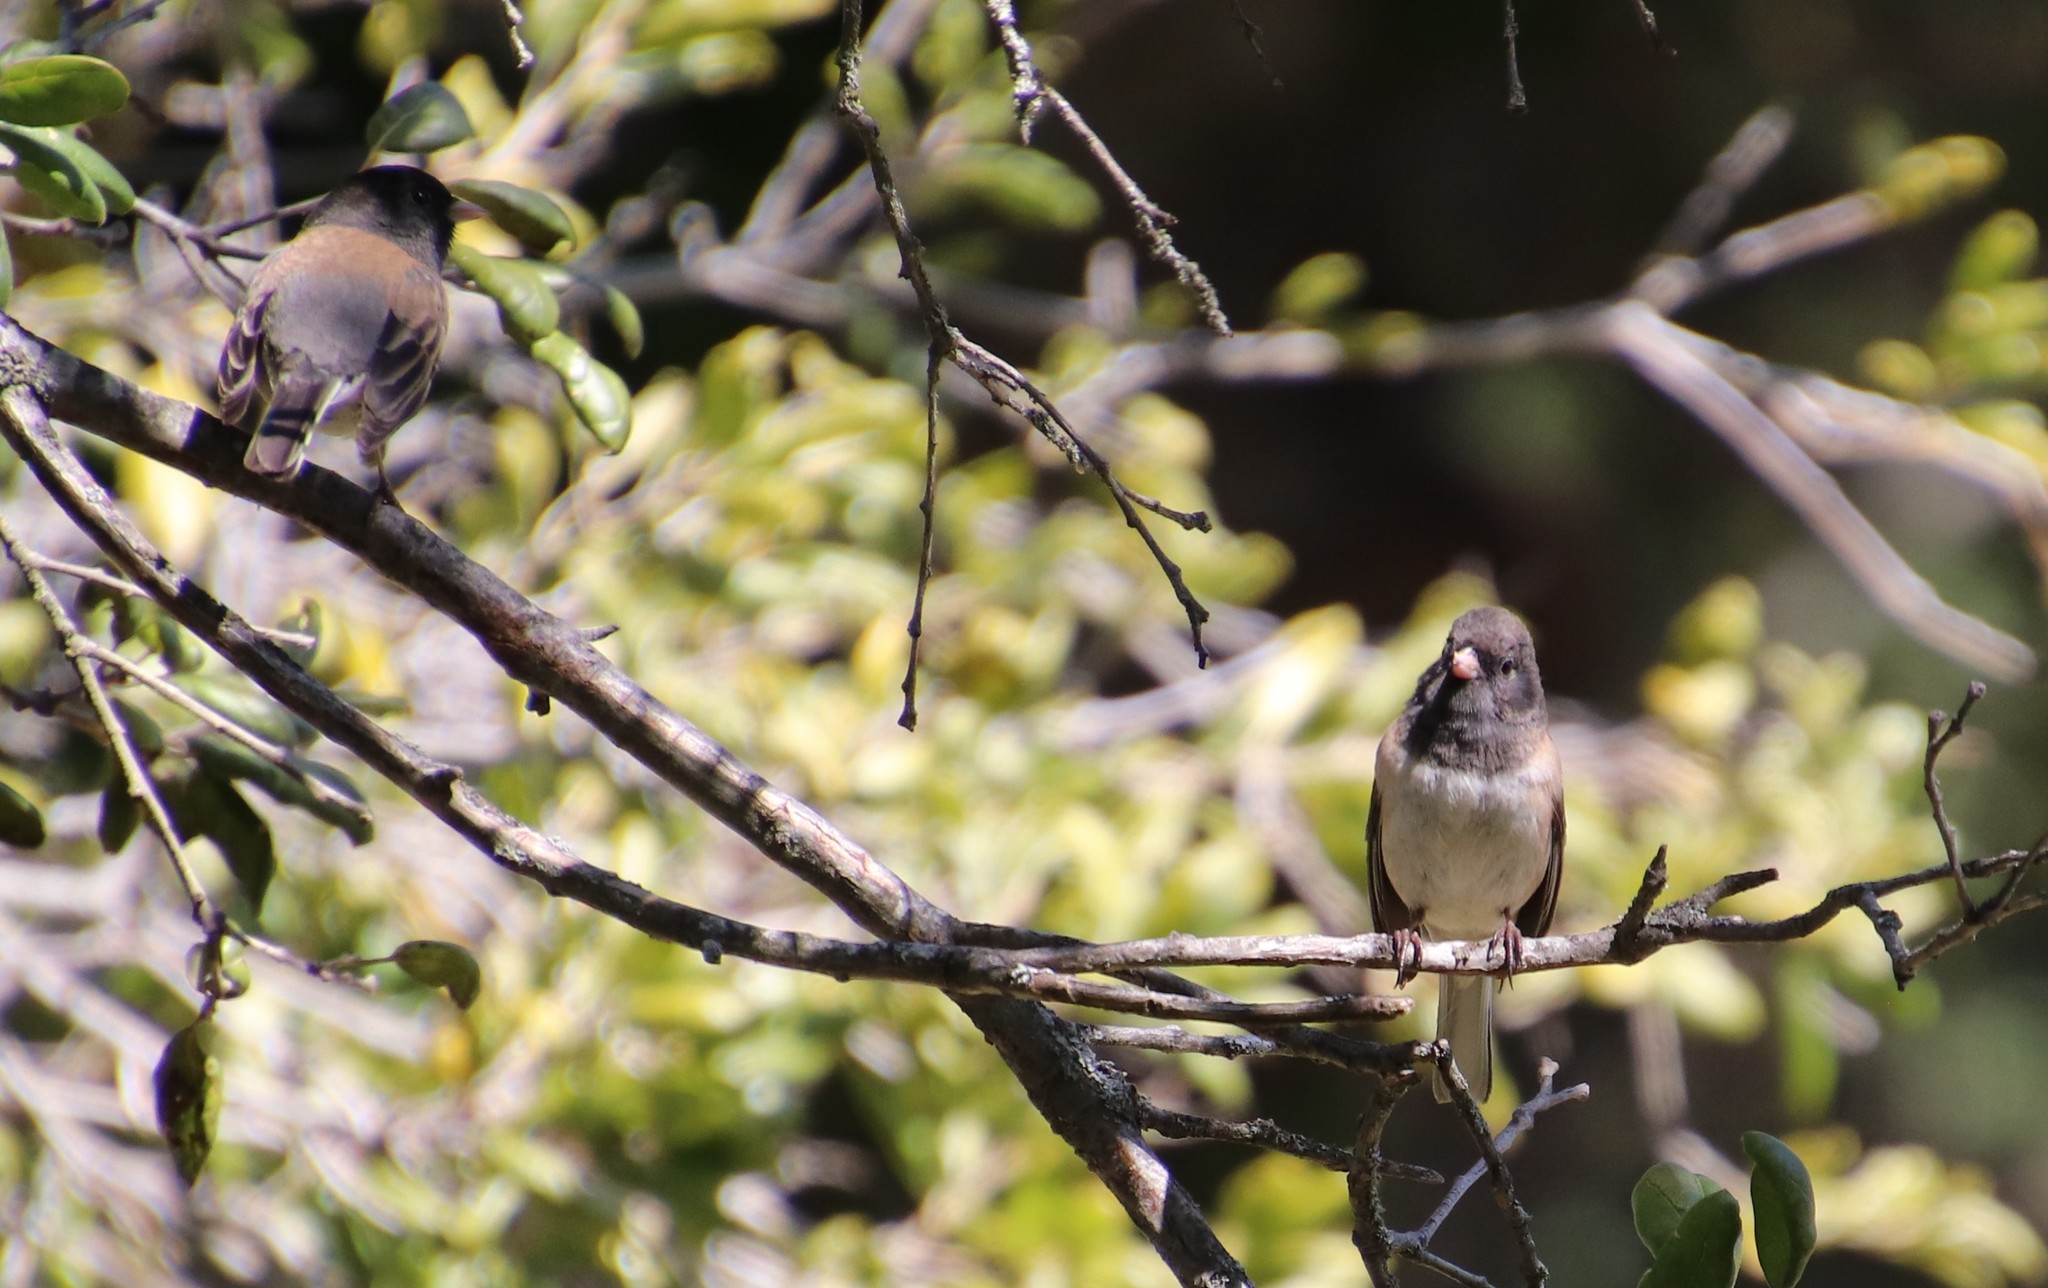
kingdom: Animalia
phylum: Chordata
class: Aves
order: Passeriformes
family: Passerellidae
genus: Junco
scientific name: Junco hyemalis
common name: Dark-eyed junco
